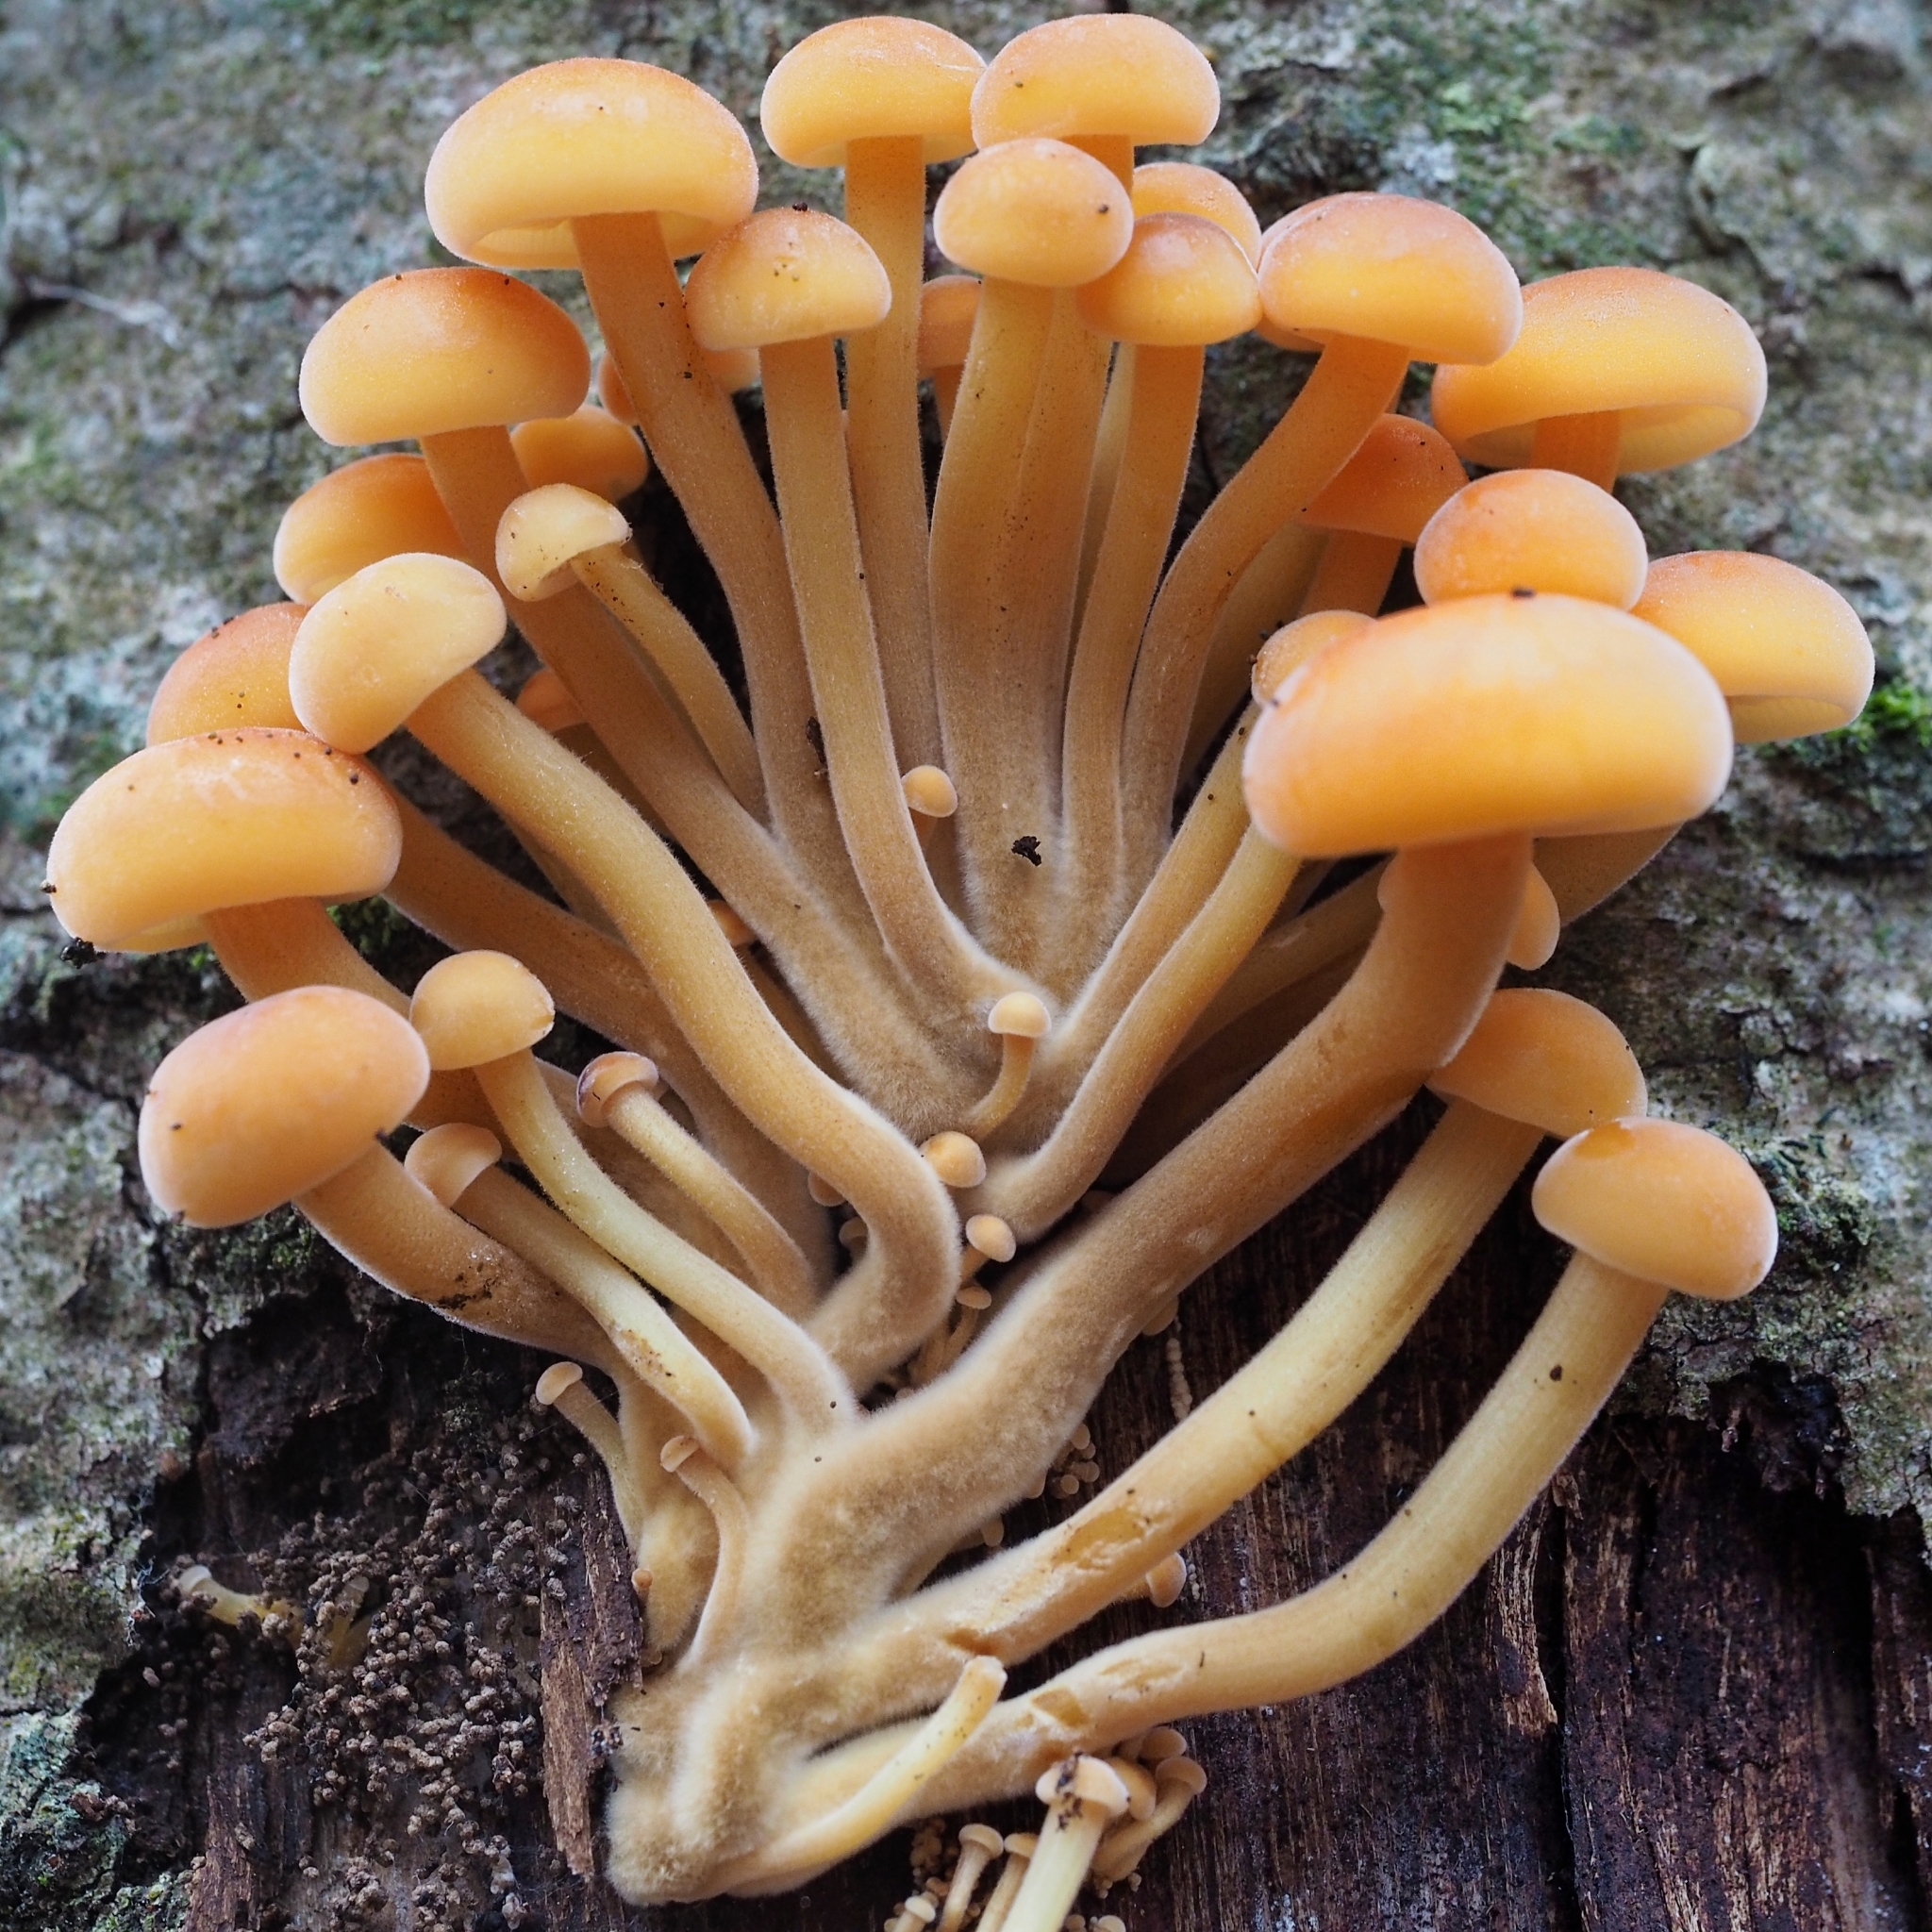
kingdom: Fungi
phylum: Basidiomycota
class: Agaricomycetes
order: Agaricales
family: Physalacriaceae
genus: Flammulina
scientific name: Flammulina velutipes
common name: Velvet shank
